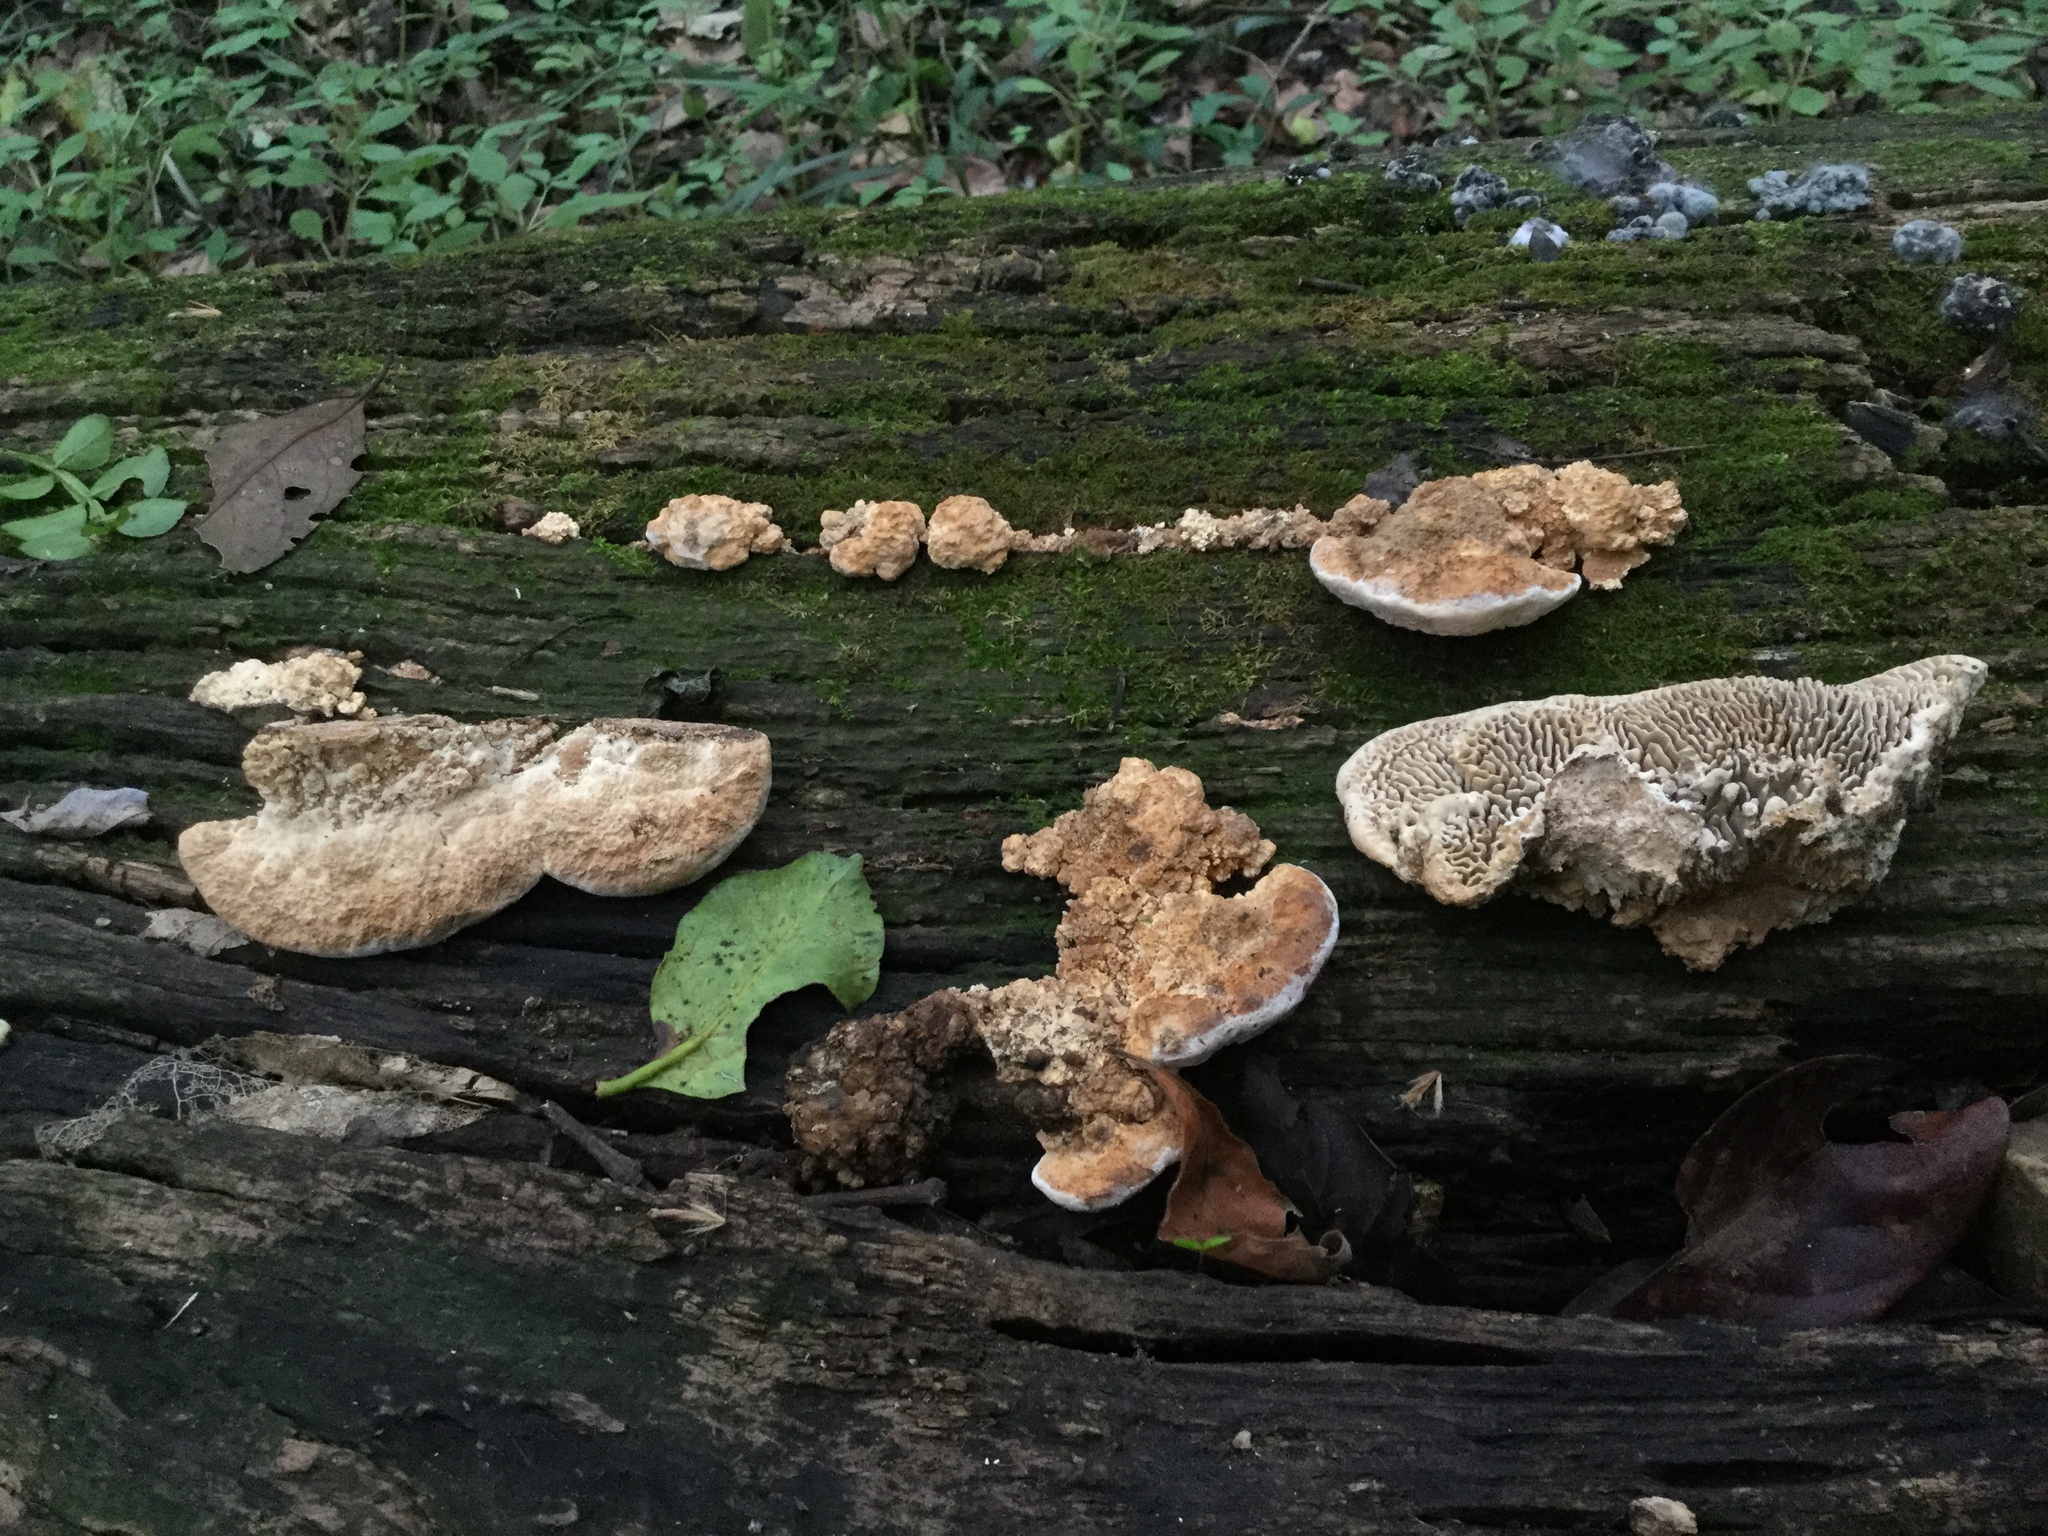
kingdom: Fungi
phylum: Basidiomycota
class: Agaricomycetes
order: Polyporales
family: Fomitopsidaceae
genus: Fomitopsis
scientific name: Fomitopsis
